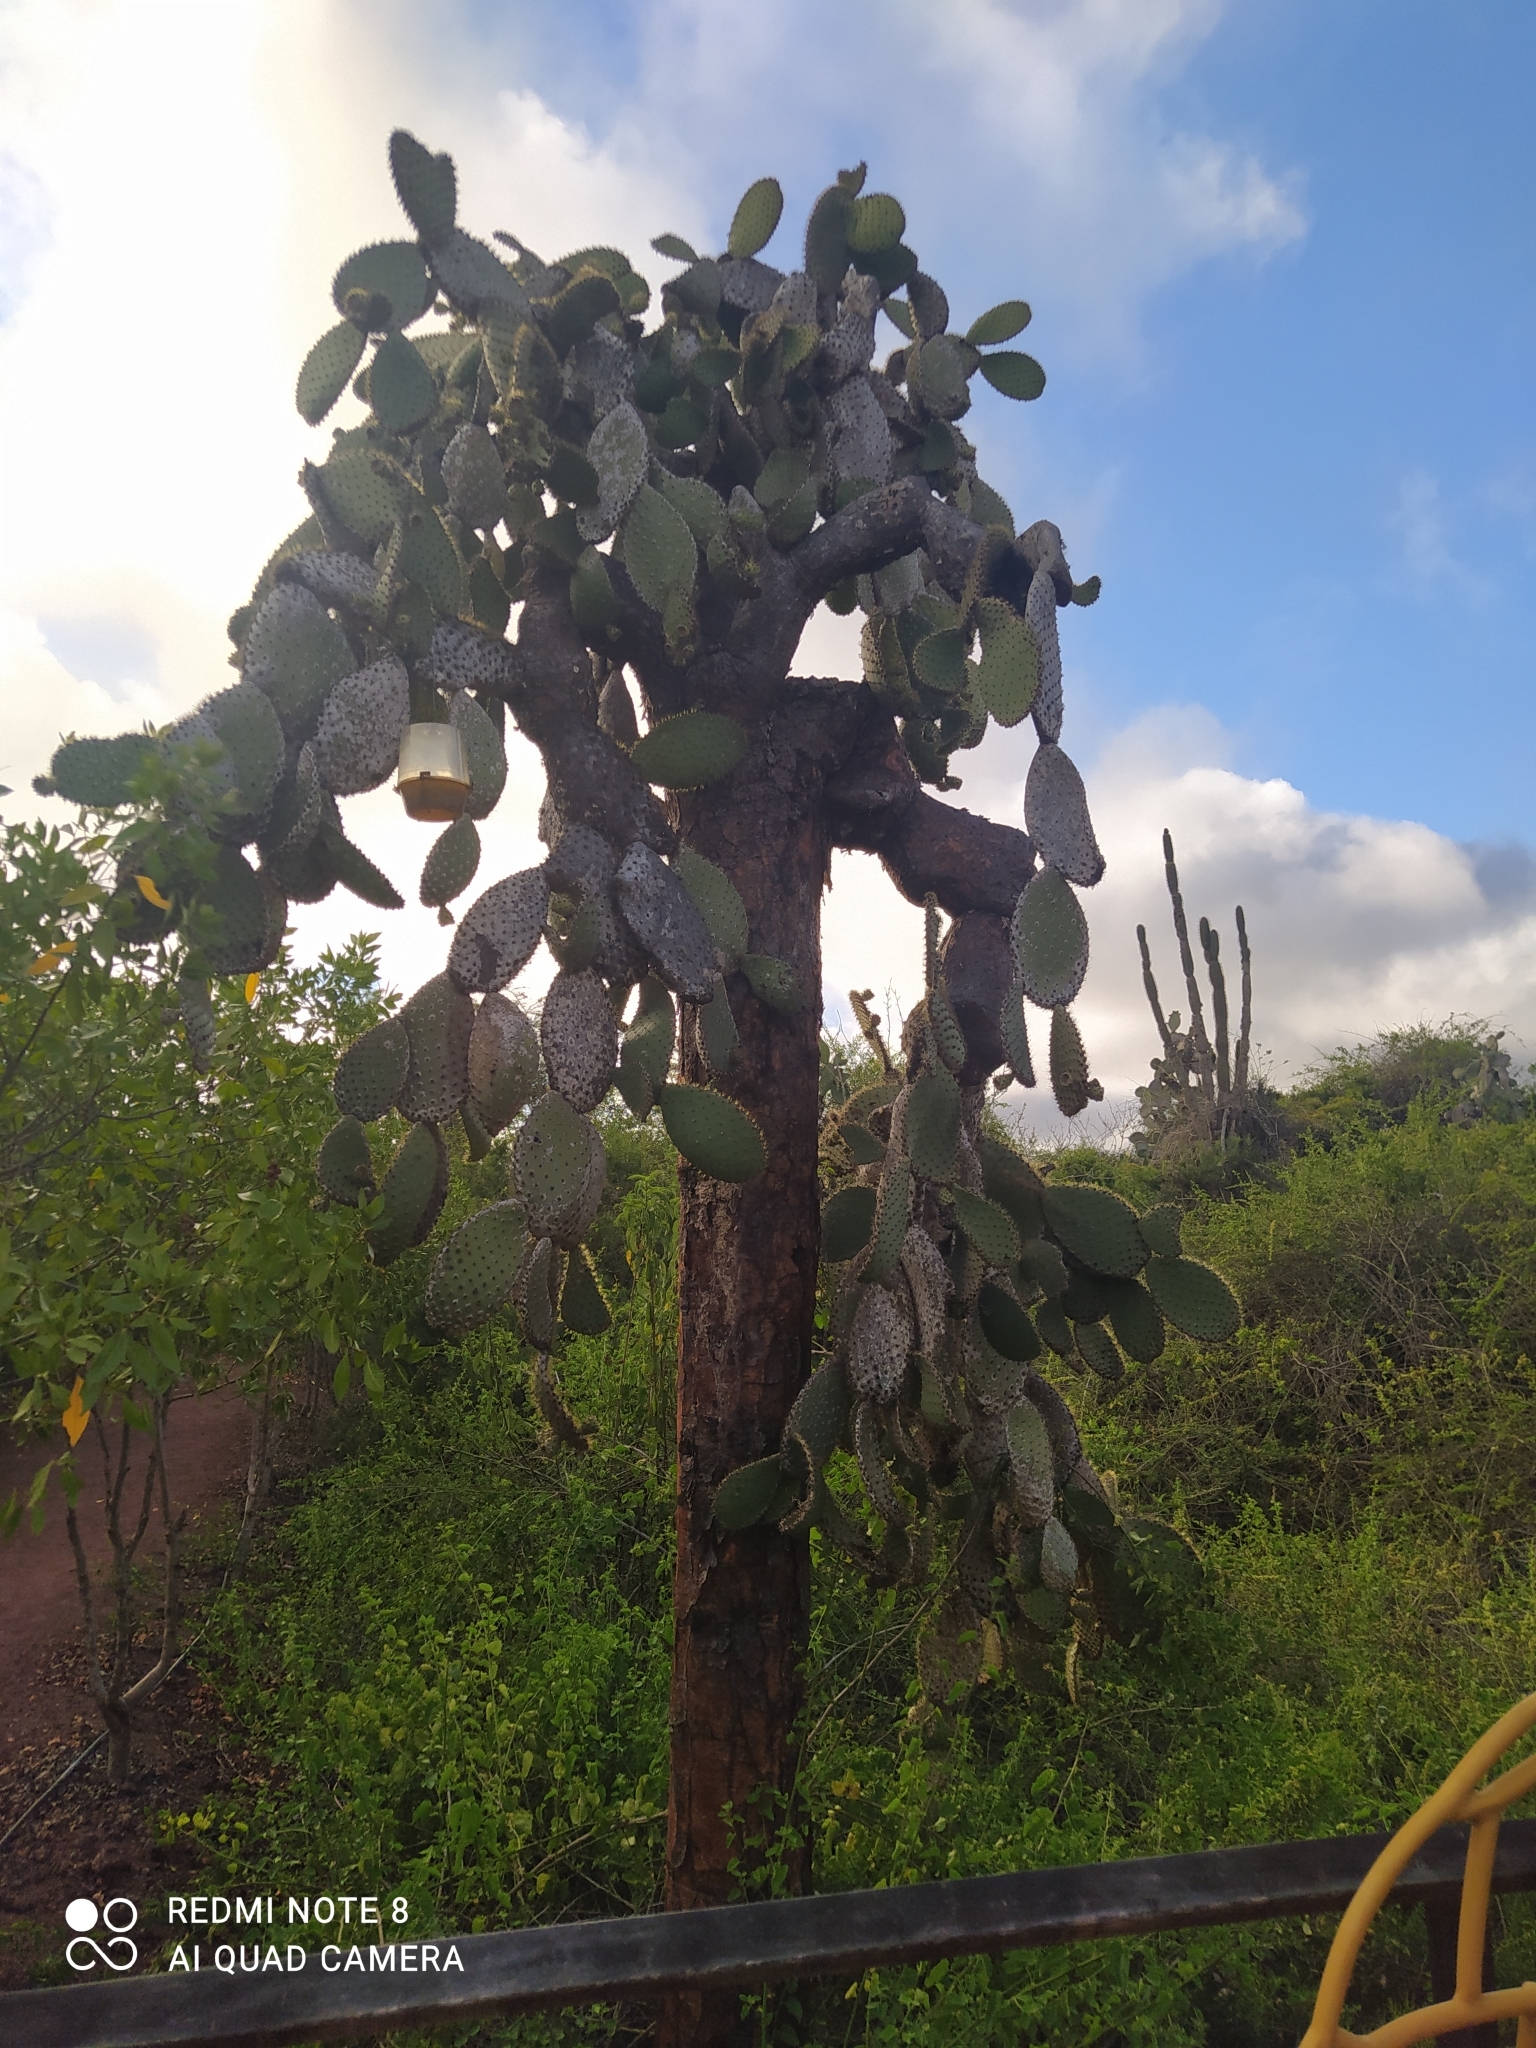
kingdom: Plantae
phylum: Tracheophyta
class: Magnoliopsida
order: Caryophyllales
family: Cactaceae
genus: Opuntia
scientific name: Opuntia galapageia
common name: Galápagos prickly pear
